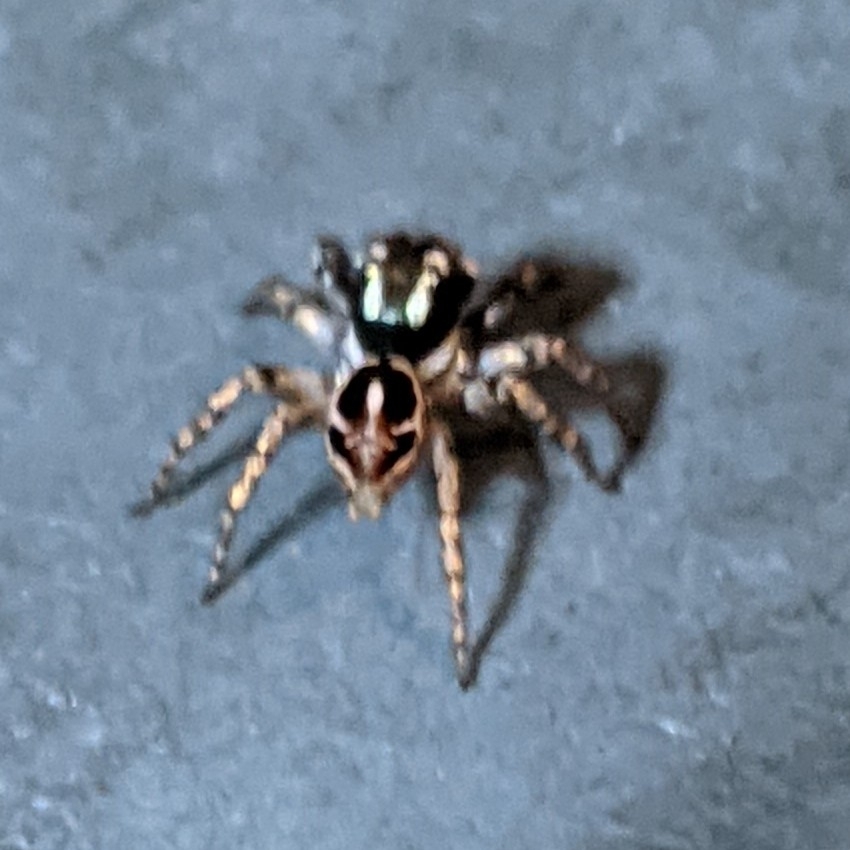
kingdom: Animalia
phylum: Arthropoda
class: Arachnida
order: Araneae
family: Salticidae
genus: Anasaitis
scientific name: Anasaitis canosa
